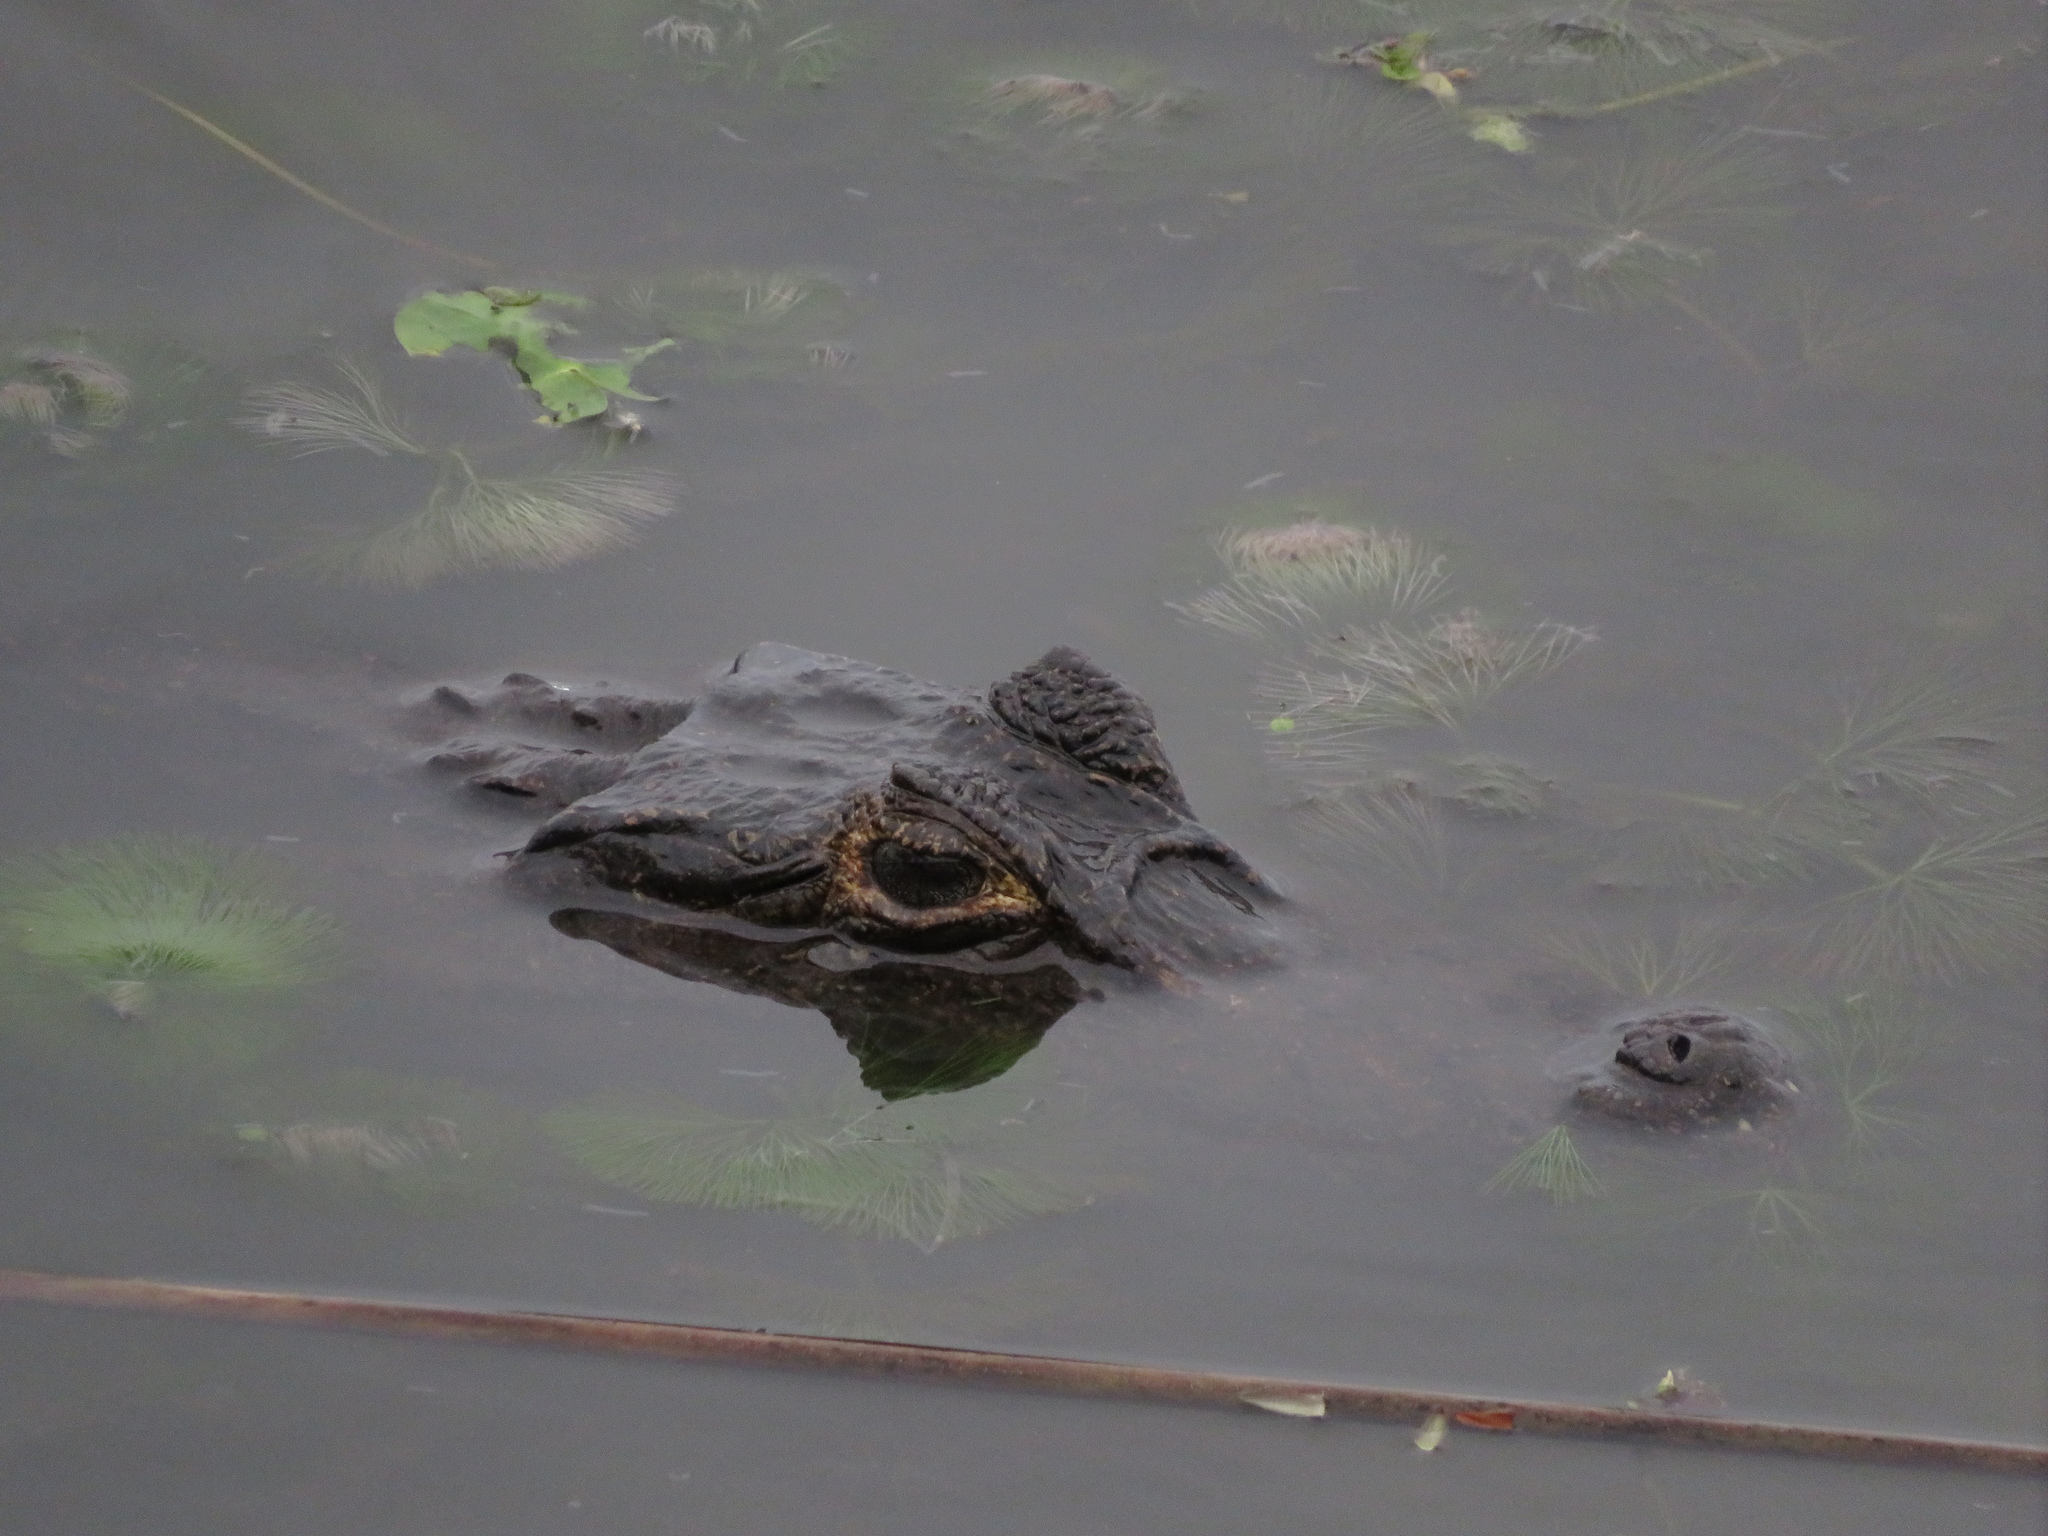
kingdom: Animalia
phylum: Chordata
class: Crocodylia
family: Alligatoridae
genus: Caiman
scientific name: Caiman yacare
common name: Yacare caiman
